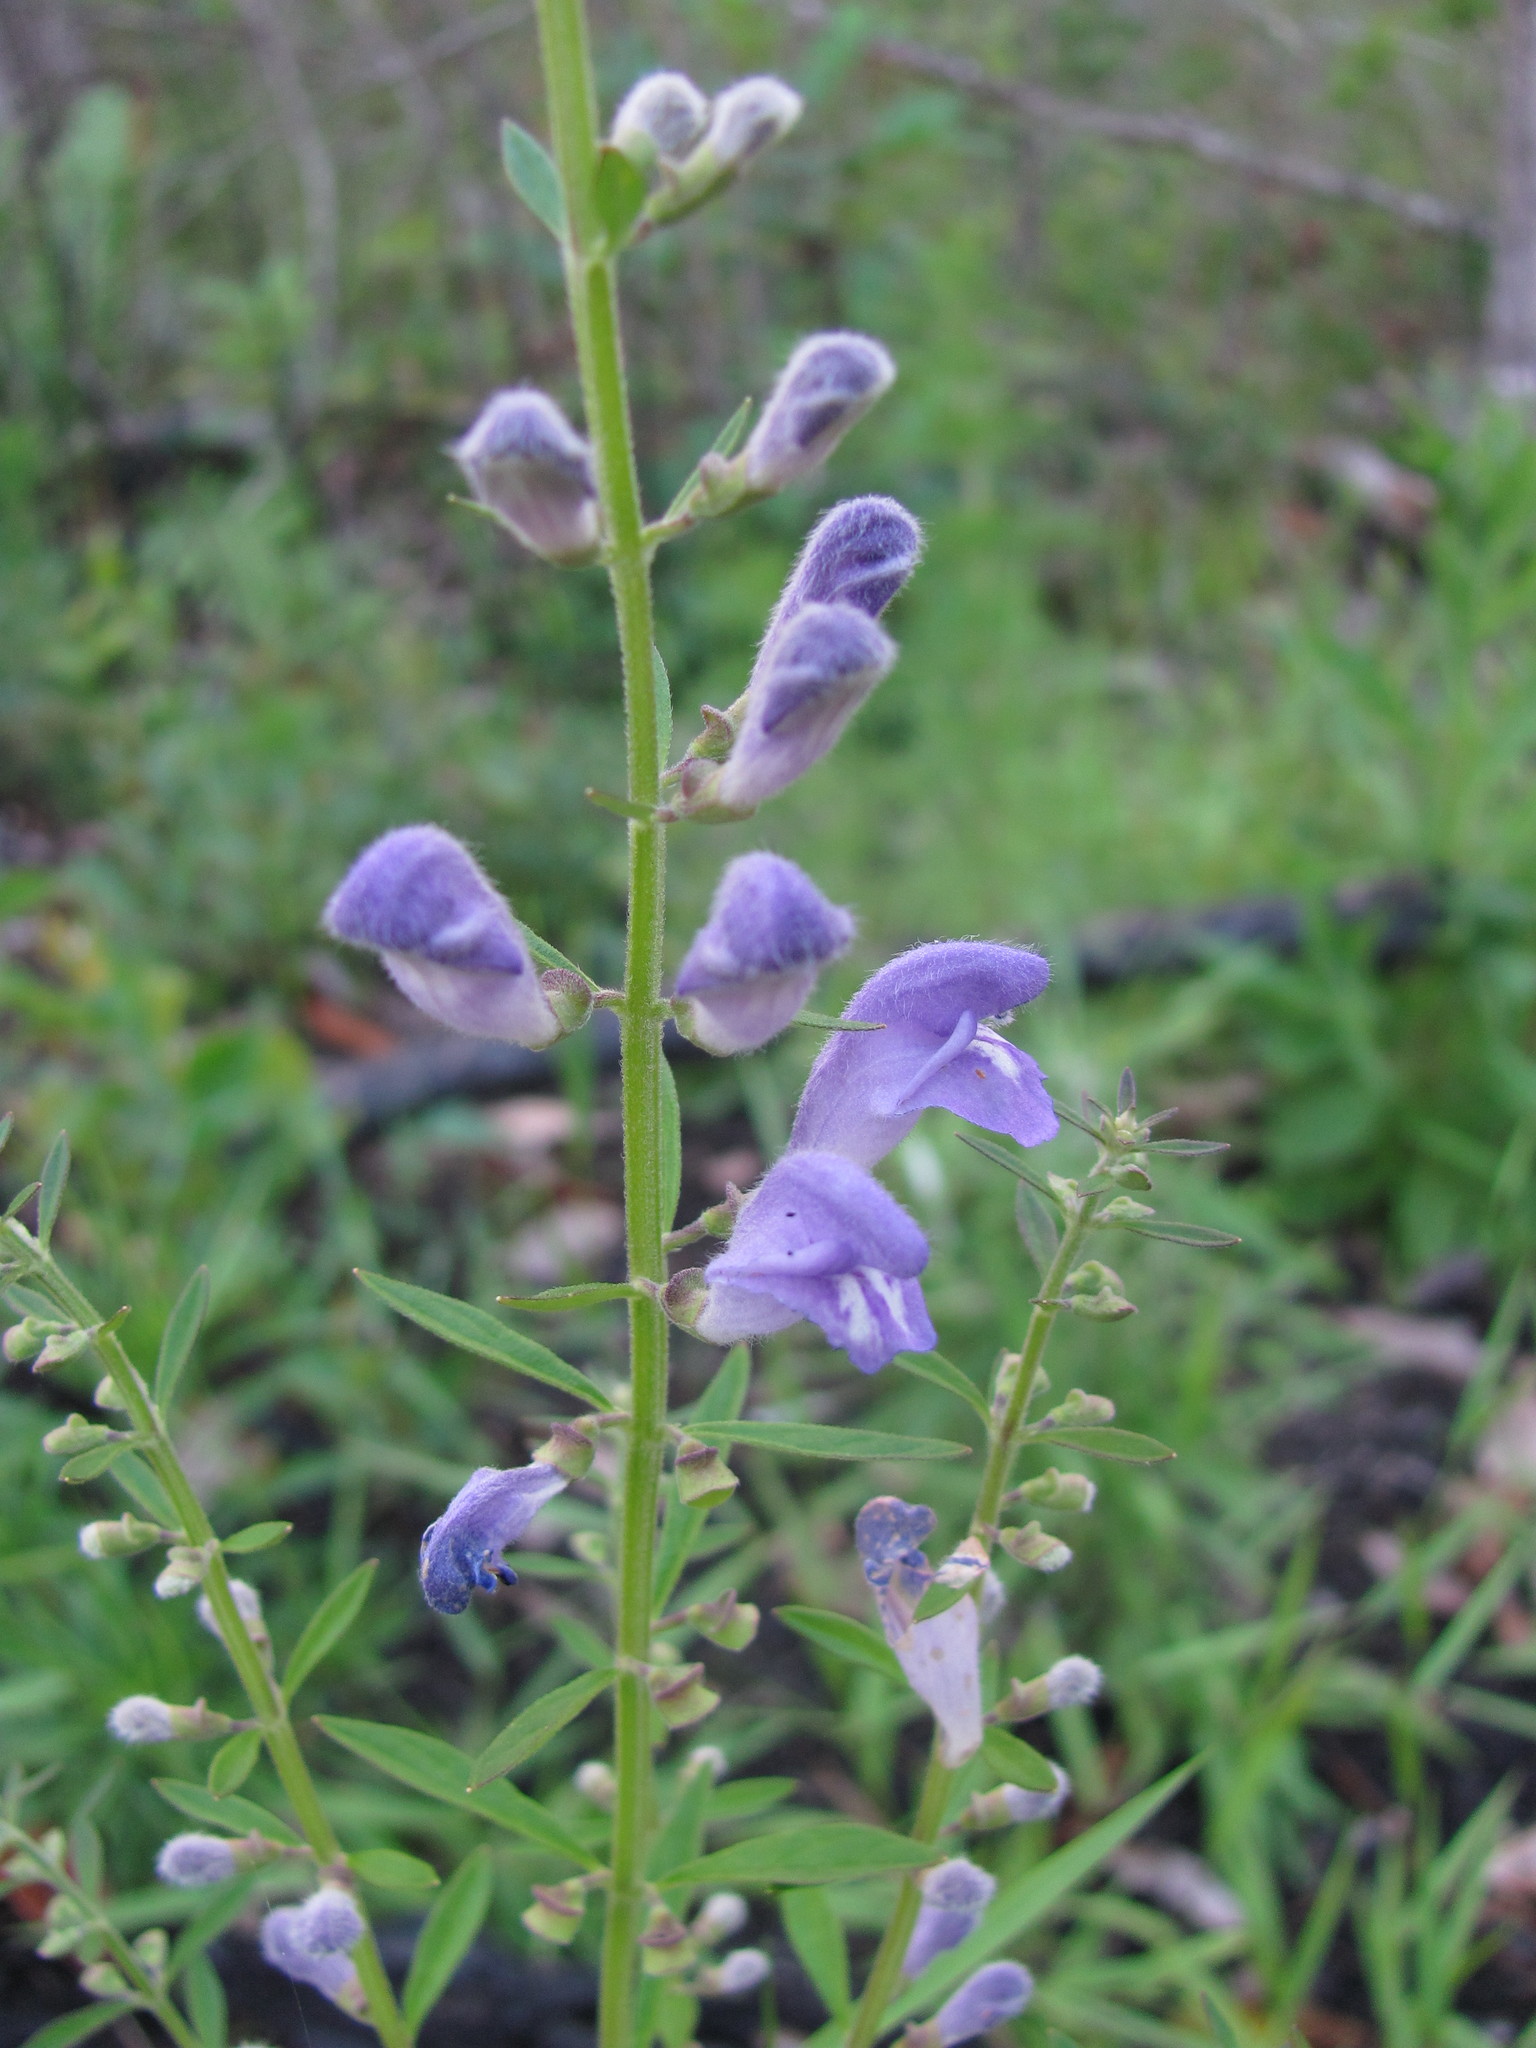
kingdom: Plantae
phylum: Tracheophyta
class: Magnoliopsida
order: Lamiales
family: Lamiaceae
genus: Scutellaria
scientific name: Scutellaria integrifolia
